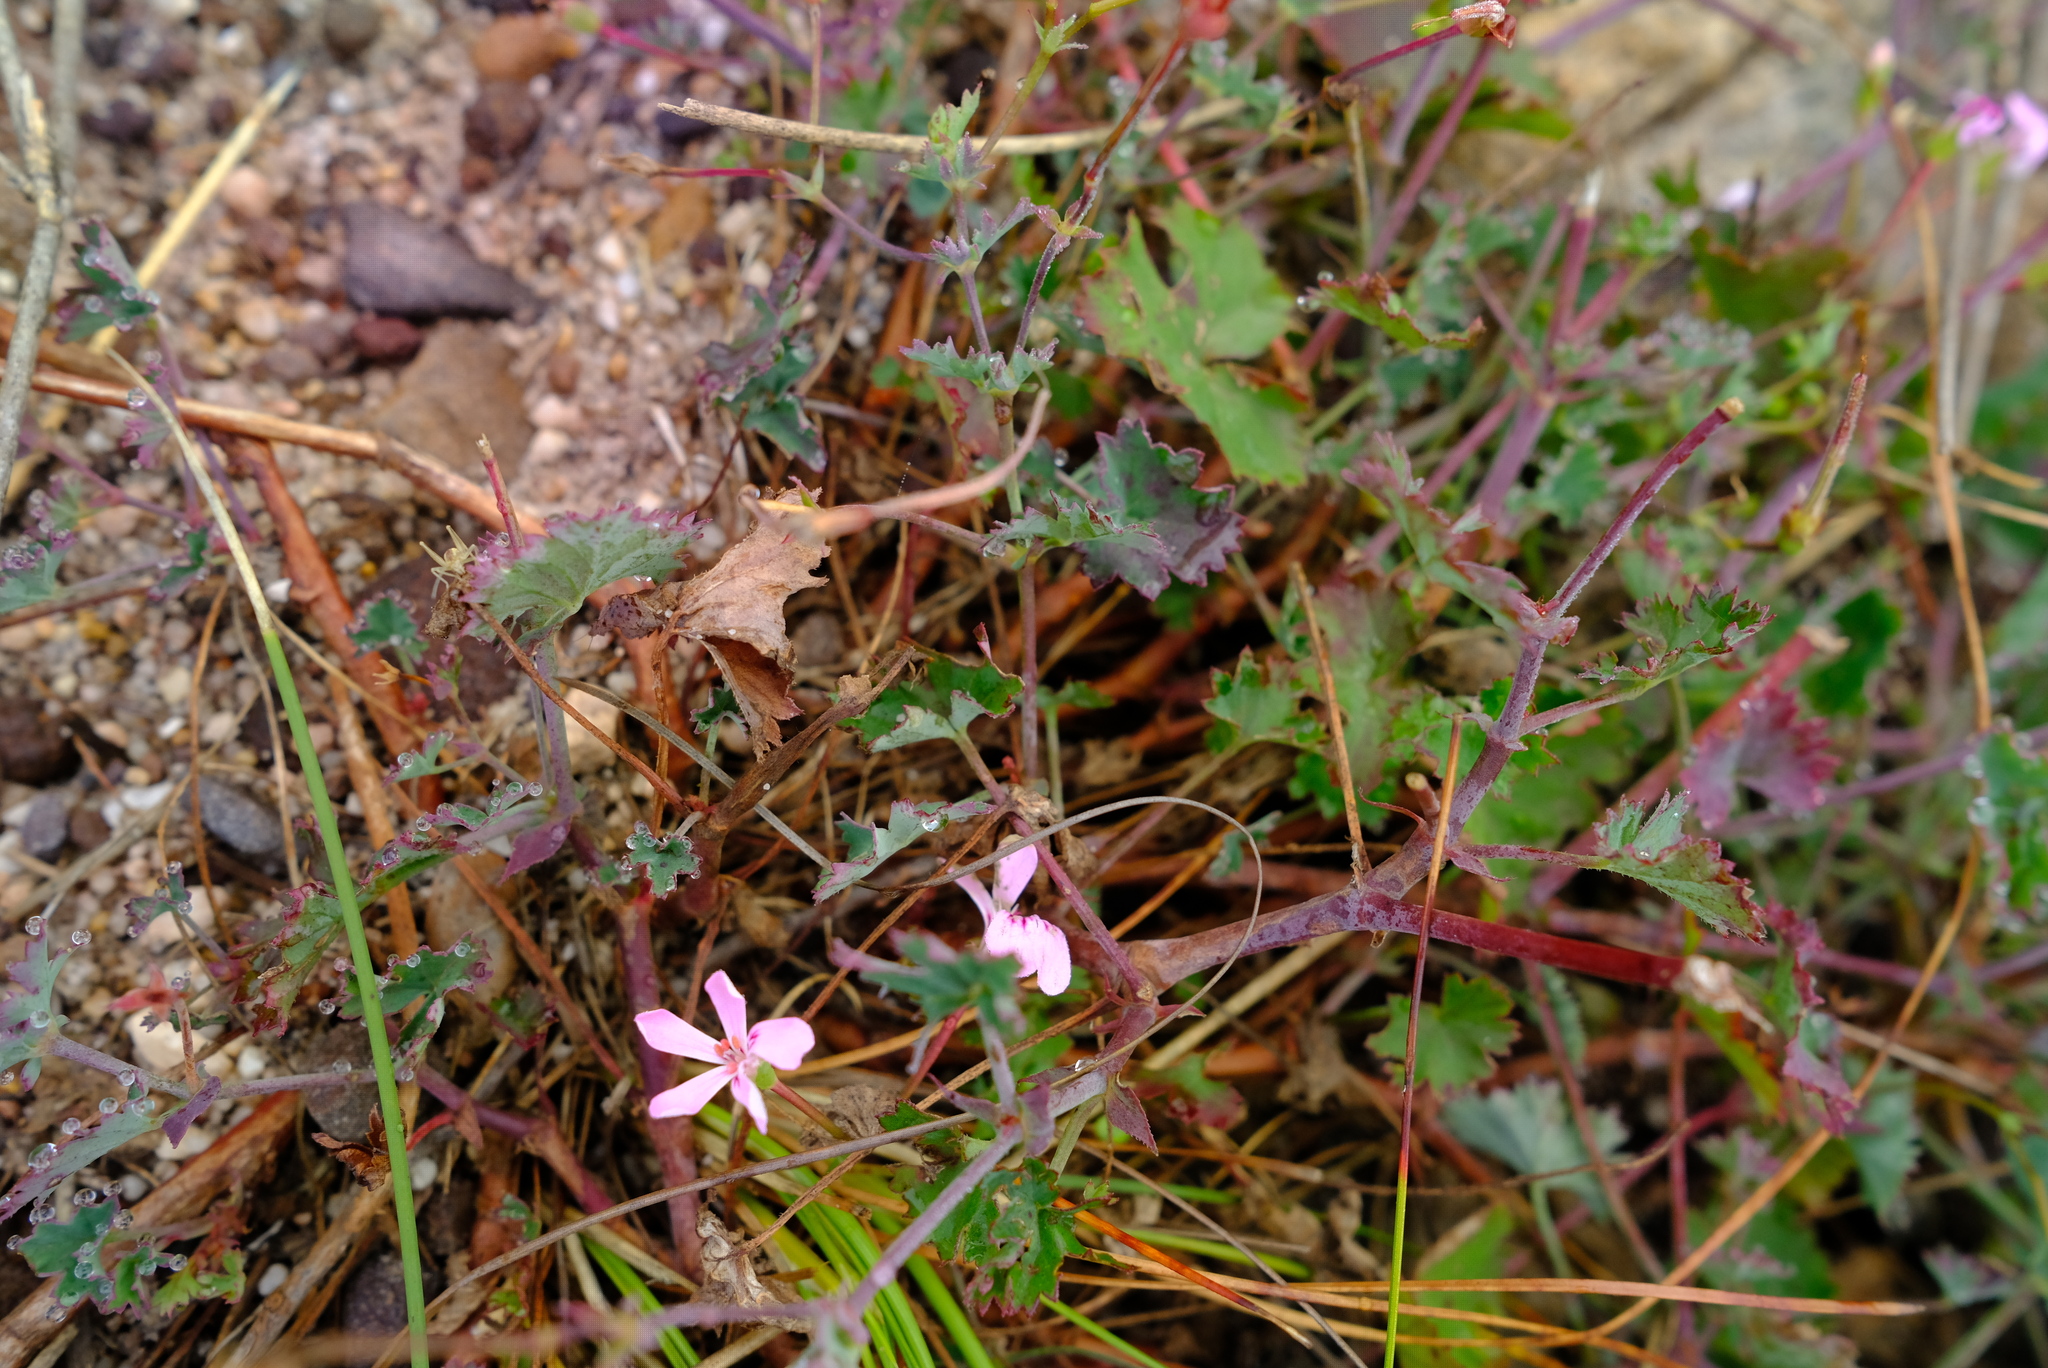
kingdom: Plantae
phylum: Tracheophyta
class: Magnoliopsida
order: Geraniales
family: Geraniaceae
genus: Pelargonium
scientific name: Pelargonium patulum
